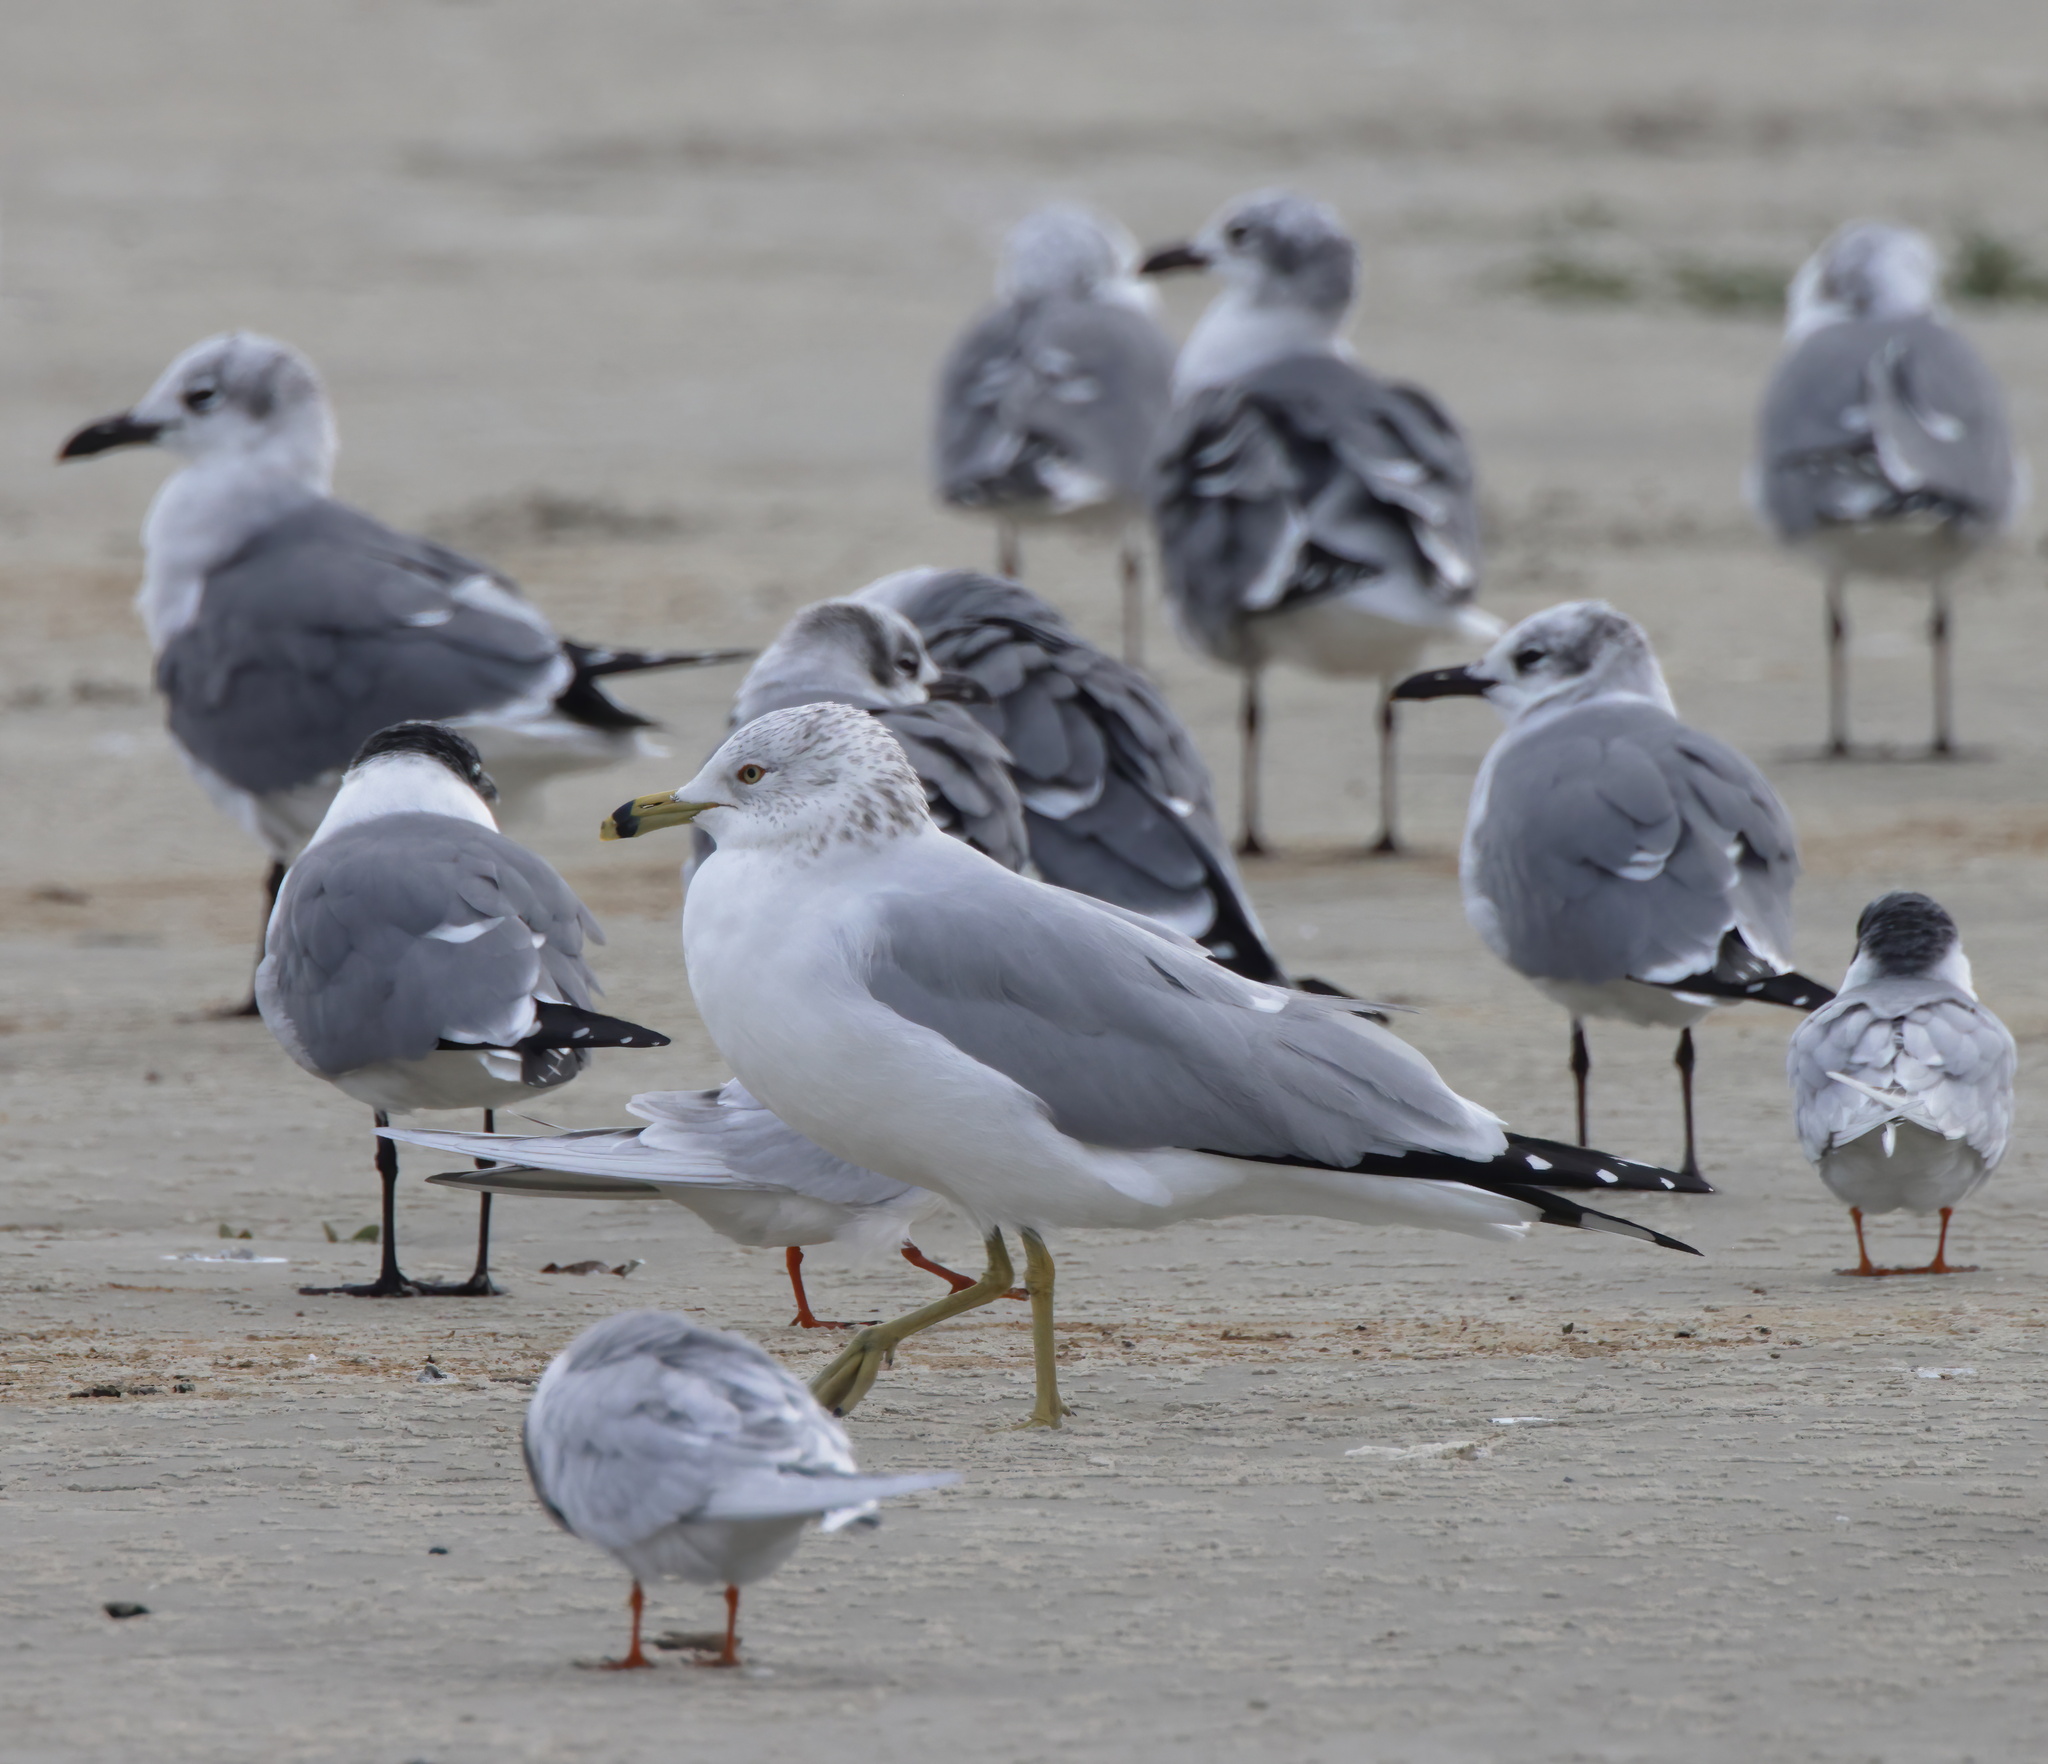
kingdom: Animalia
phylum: Chordata
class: Aves
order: Charadriiformes
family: Laridae
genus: Larus
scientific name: Larus delawarensis
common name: Ring-billed gull
